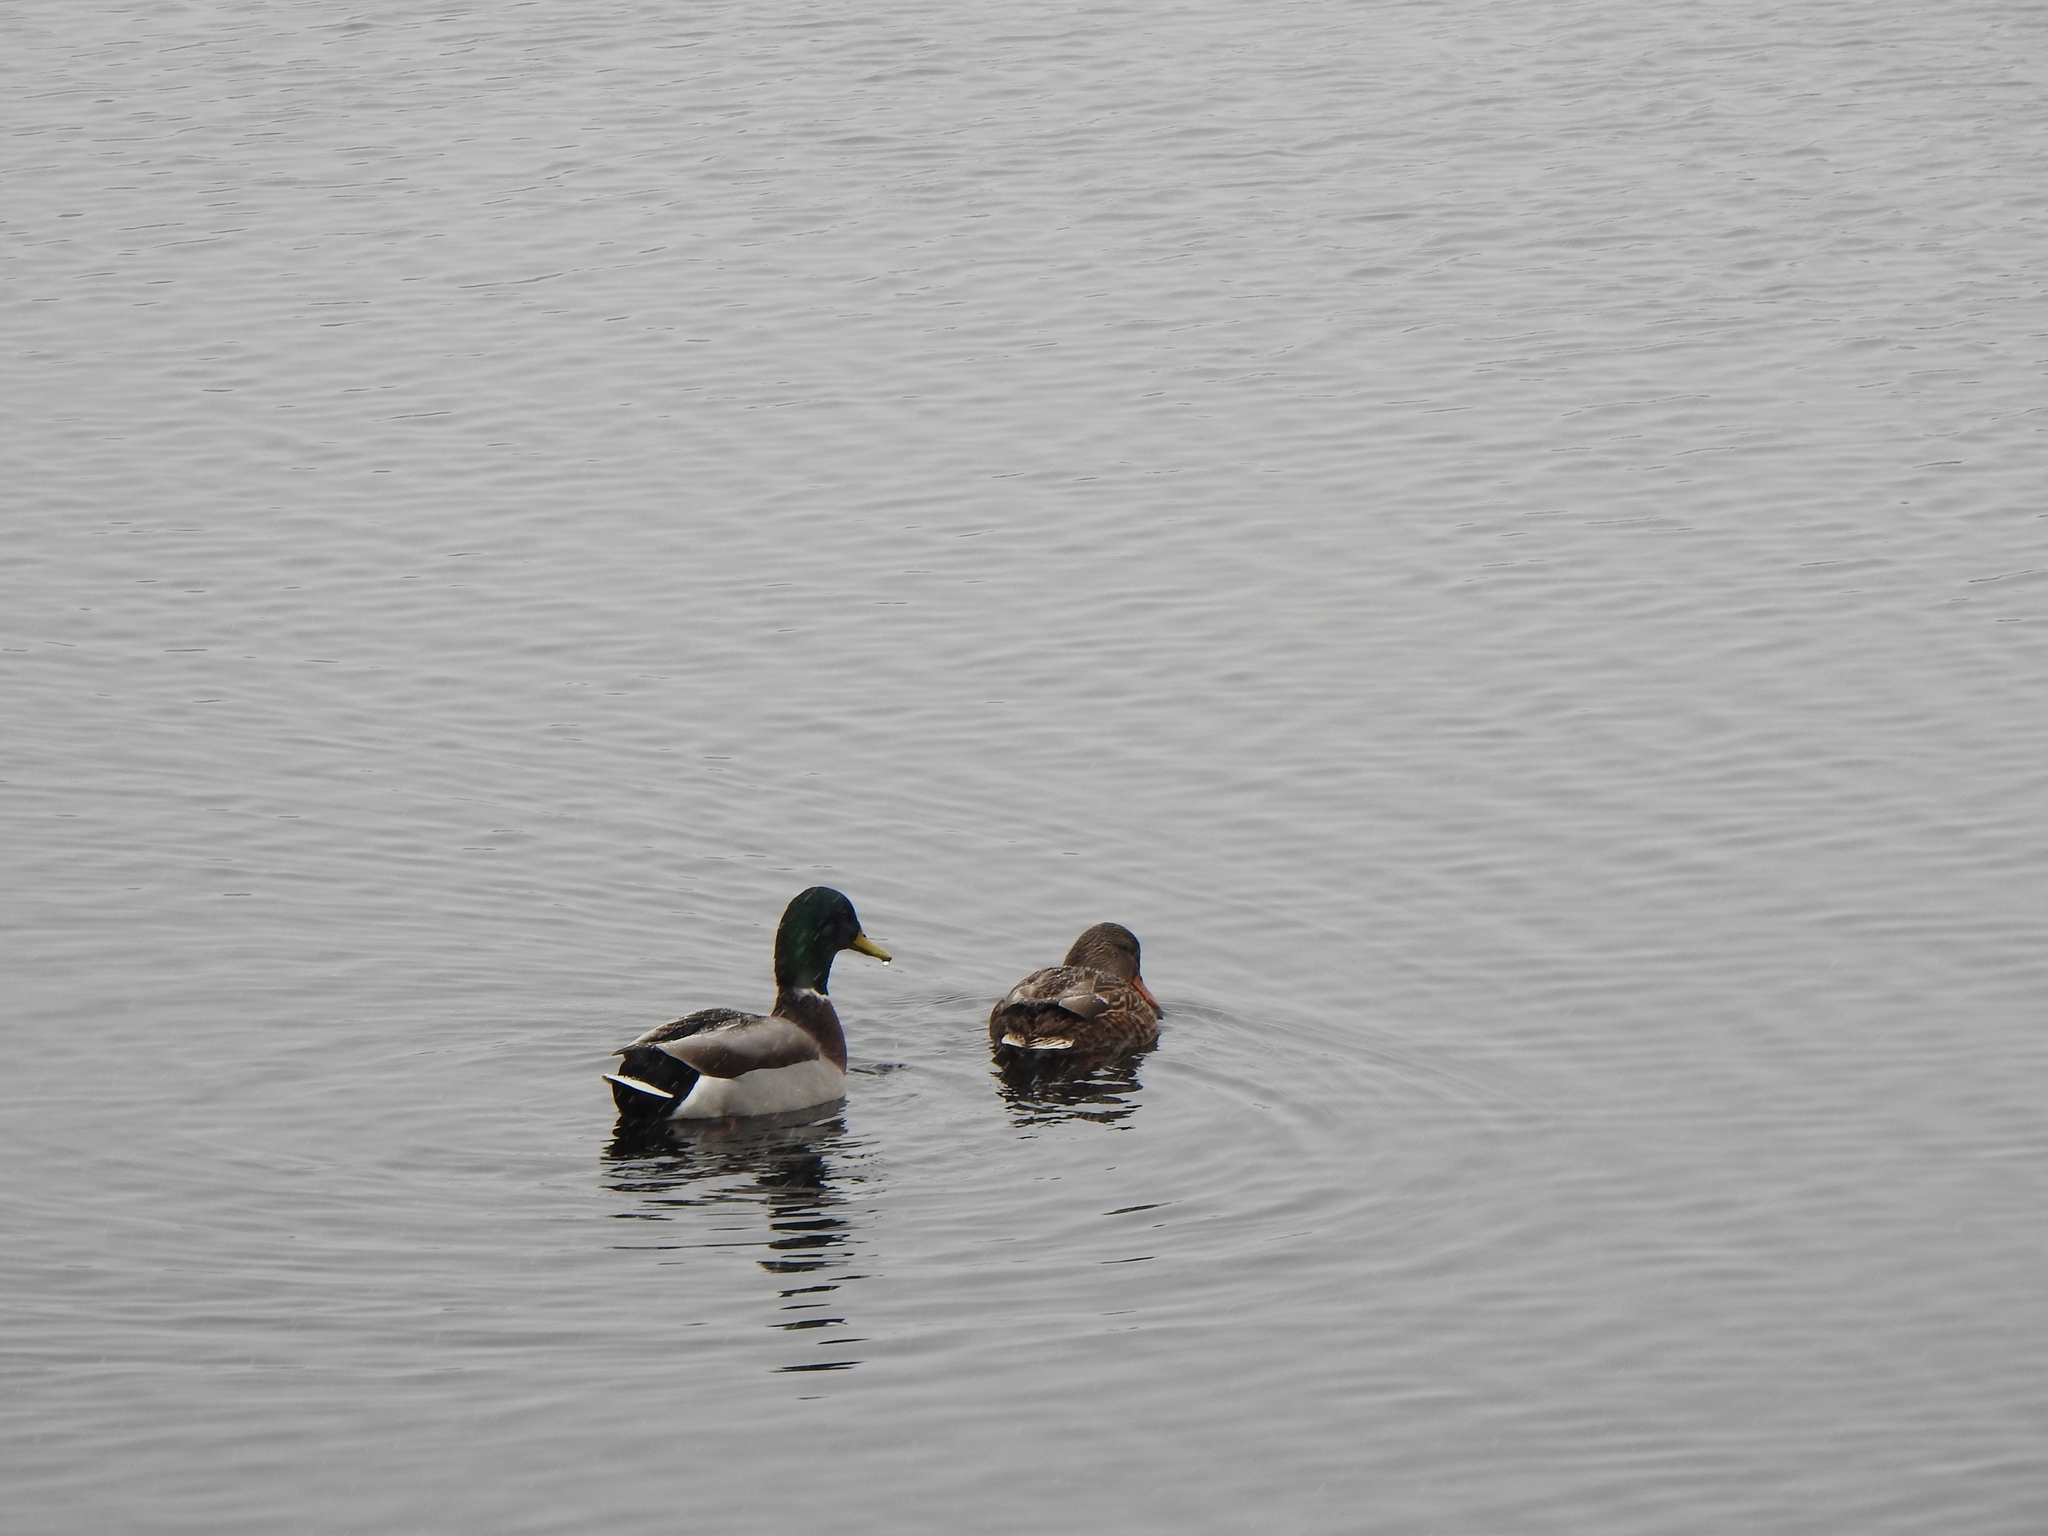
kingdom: Animalia
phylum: Chordata
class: Aves
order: Anseriformes
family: Anatidae
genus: Anas
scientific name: Anas platyrhynchos
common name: Mallard
